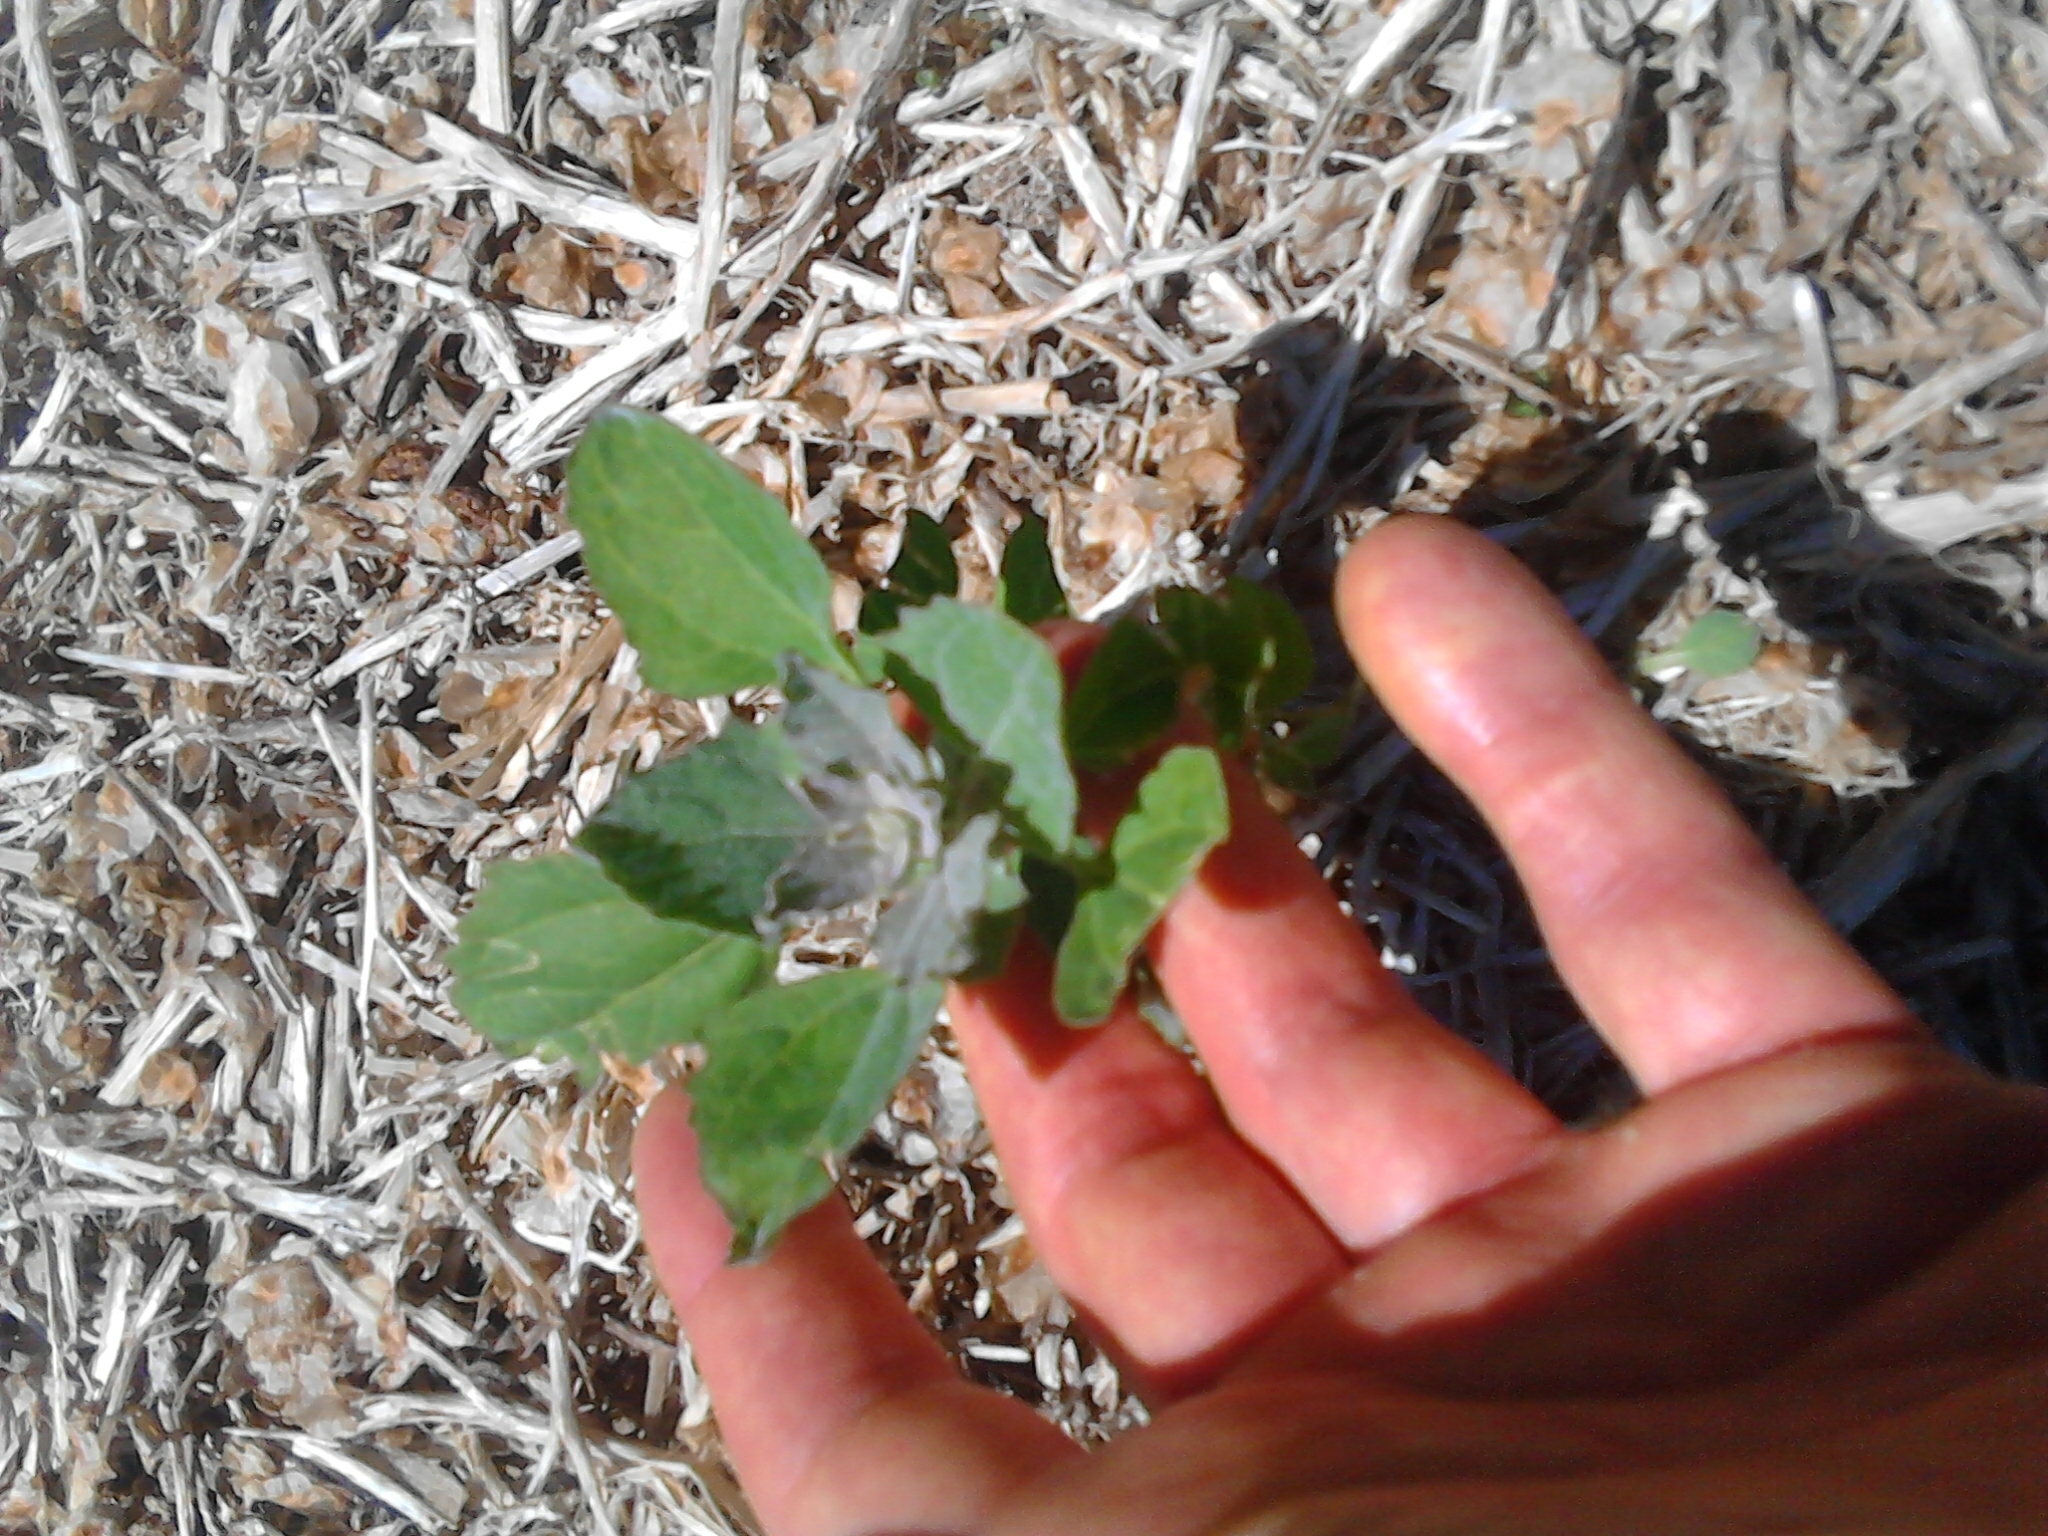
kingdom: Plantae
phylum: Tracheophyta
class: Magnoliopsida
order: Caryophyllales
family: Amaranthaceae
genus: Chenopodium
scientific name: Chenopodium album
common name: Fat-hen
